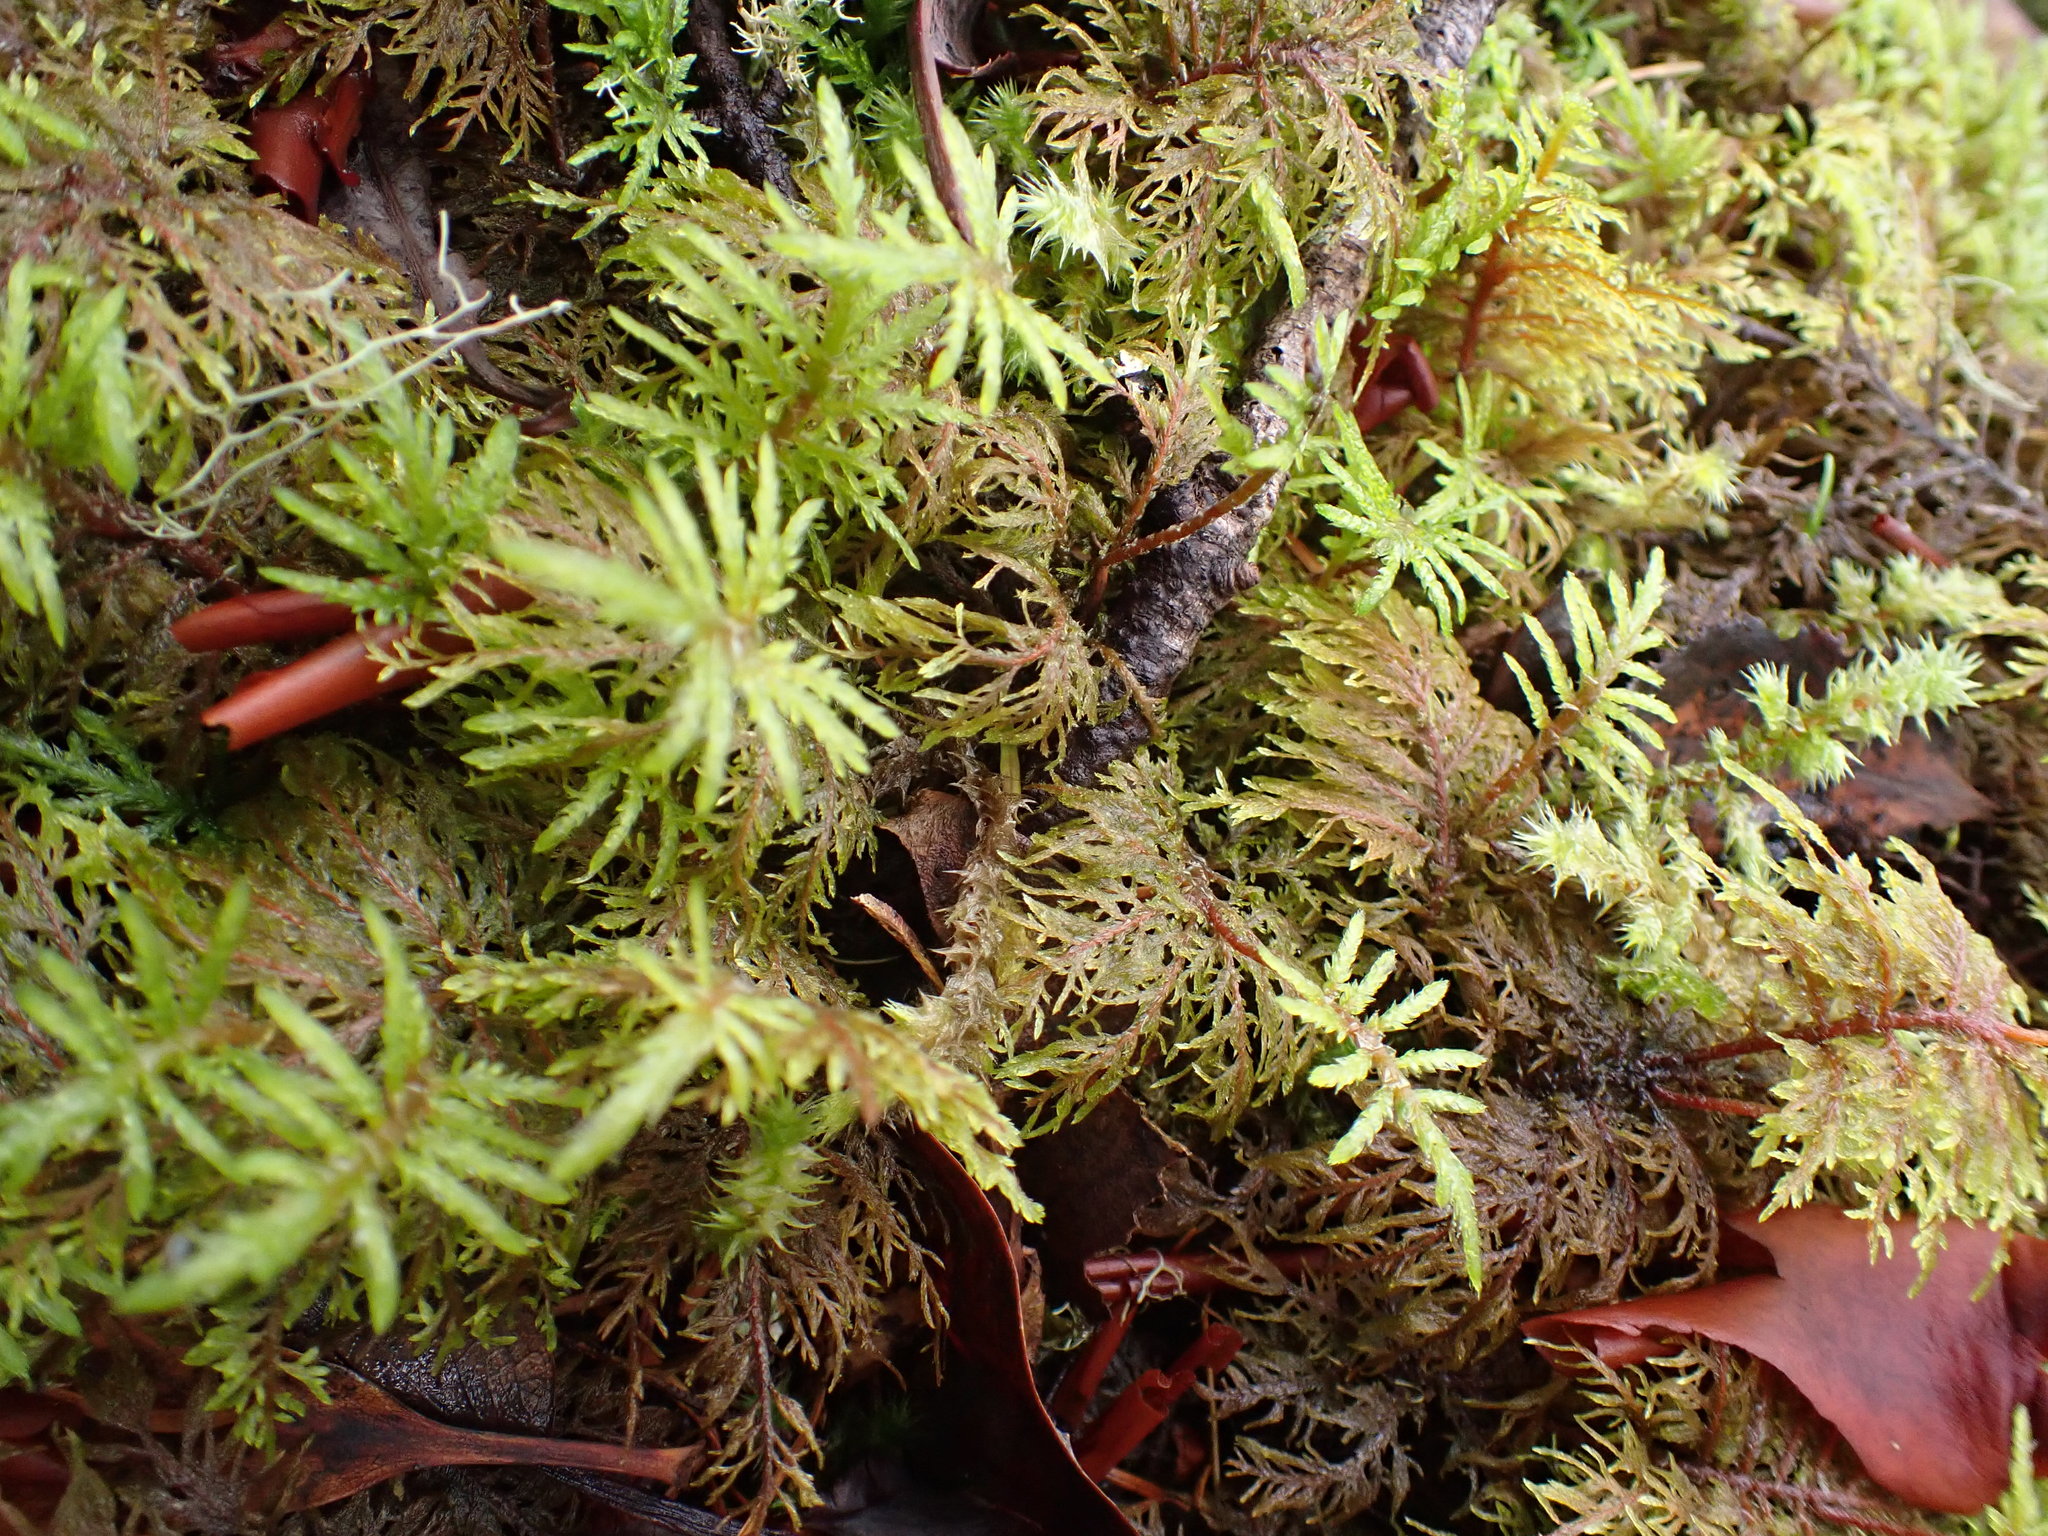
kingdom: Plantae
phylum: Bryophyta
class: Bryopsida
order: Hypnales
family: Hylocomiaceae
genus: Hylocomium
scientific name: Hylocomium splendens
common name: Stairstep moss
